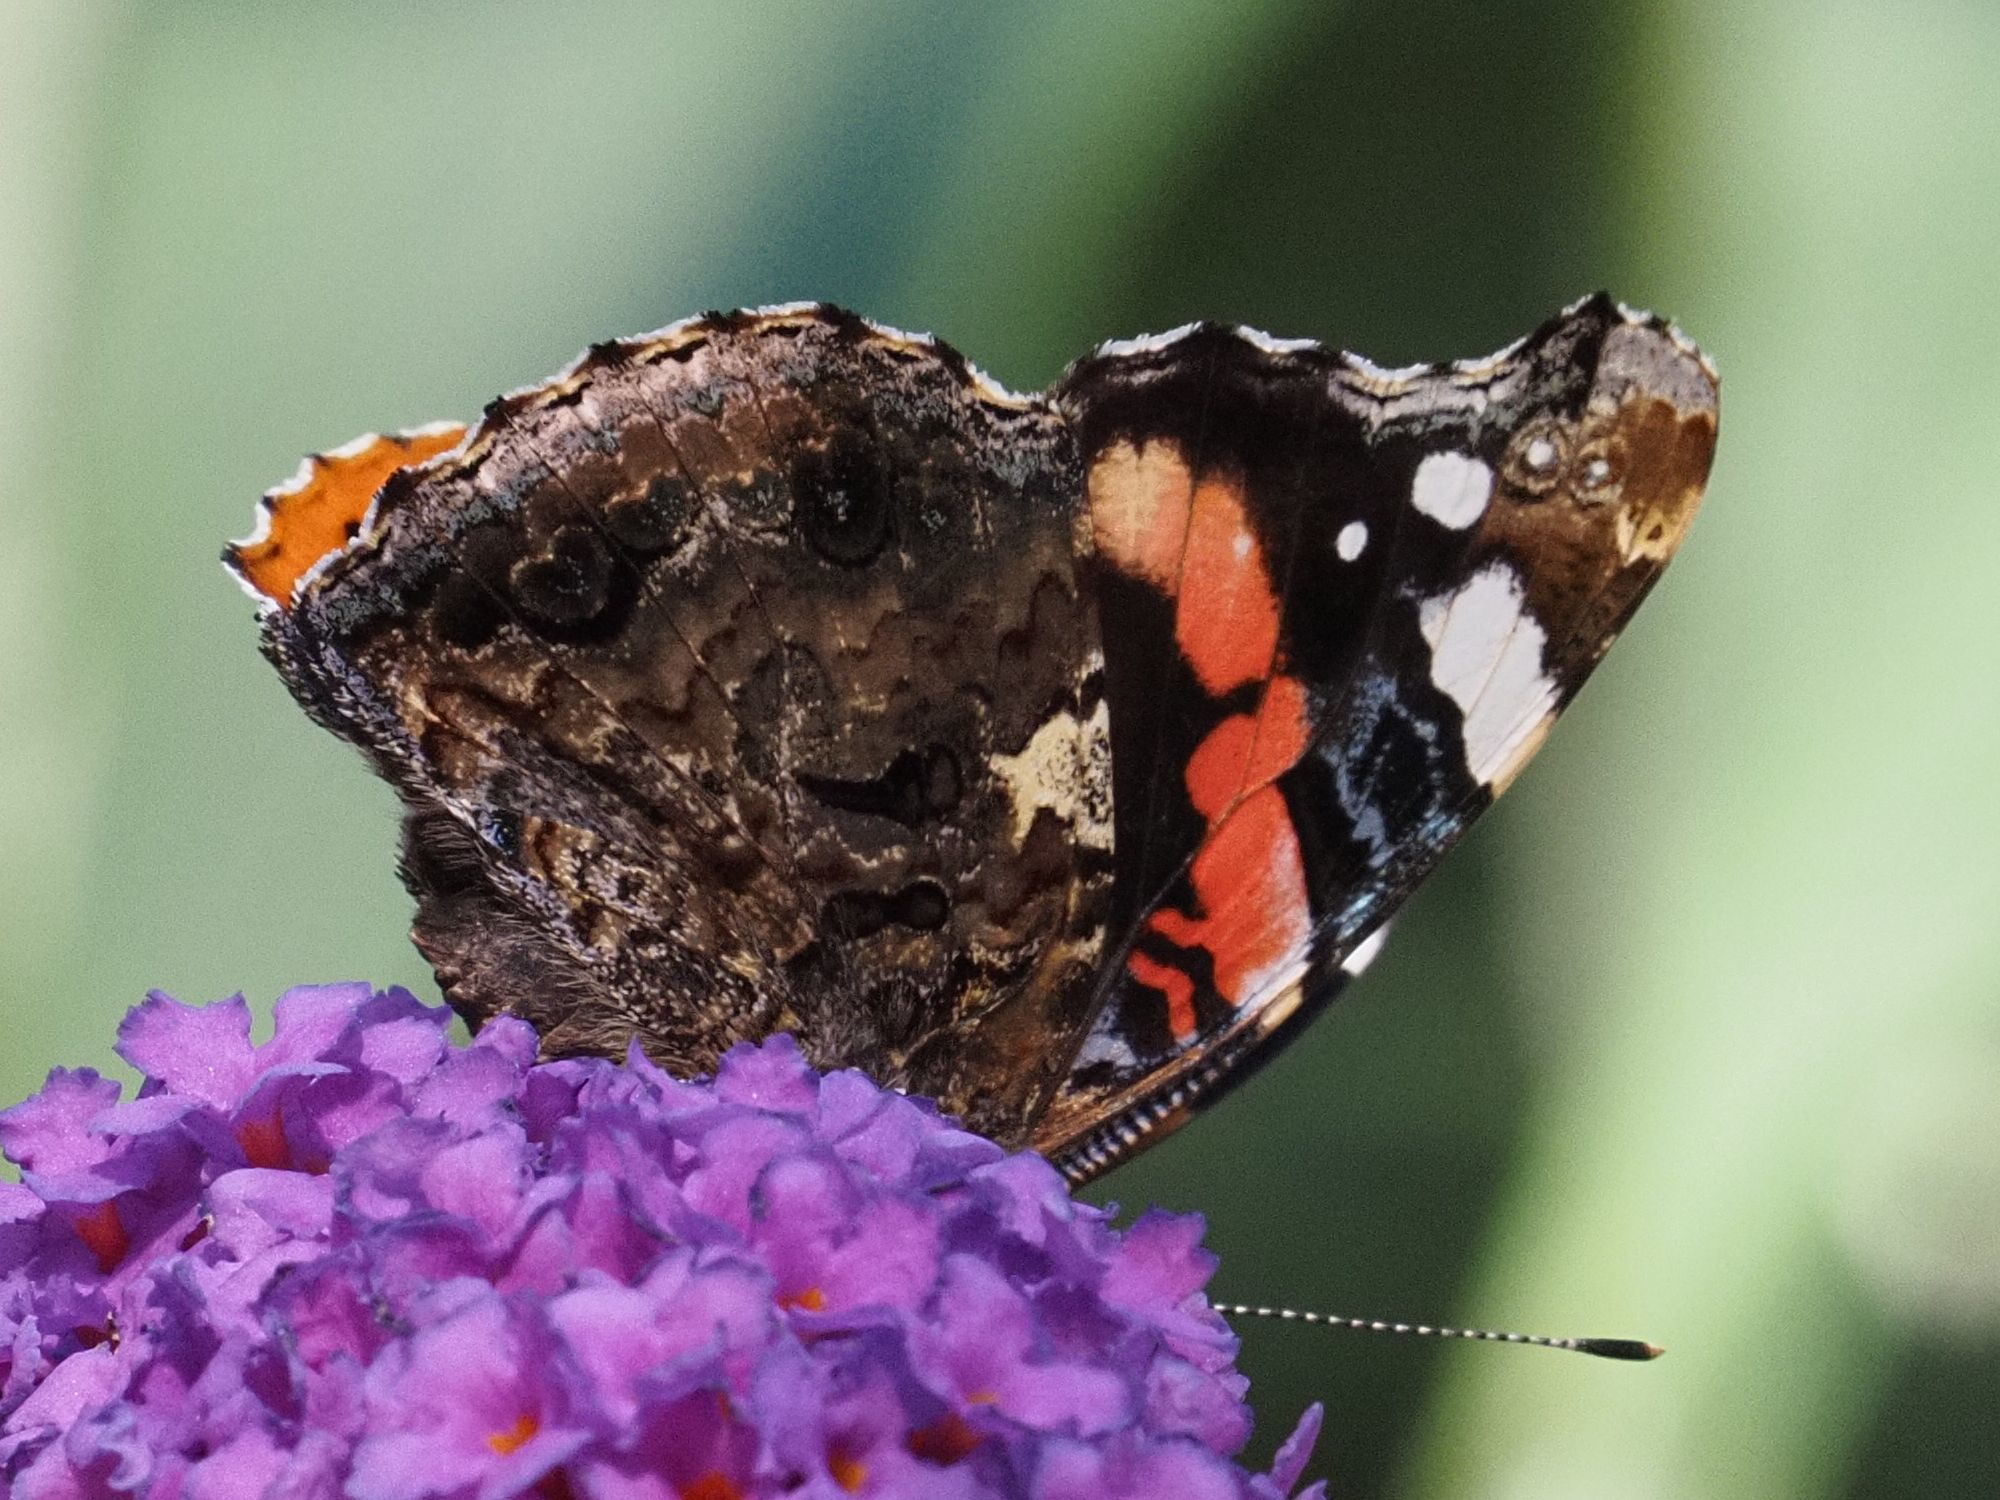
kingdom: Animalia
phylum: Arthropoda
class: Insecta
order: Lepidoptera
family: Nymphalidae
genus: Vanessa
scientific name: Vanessa atalanta
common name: Red admiral
